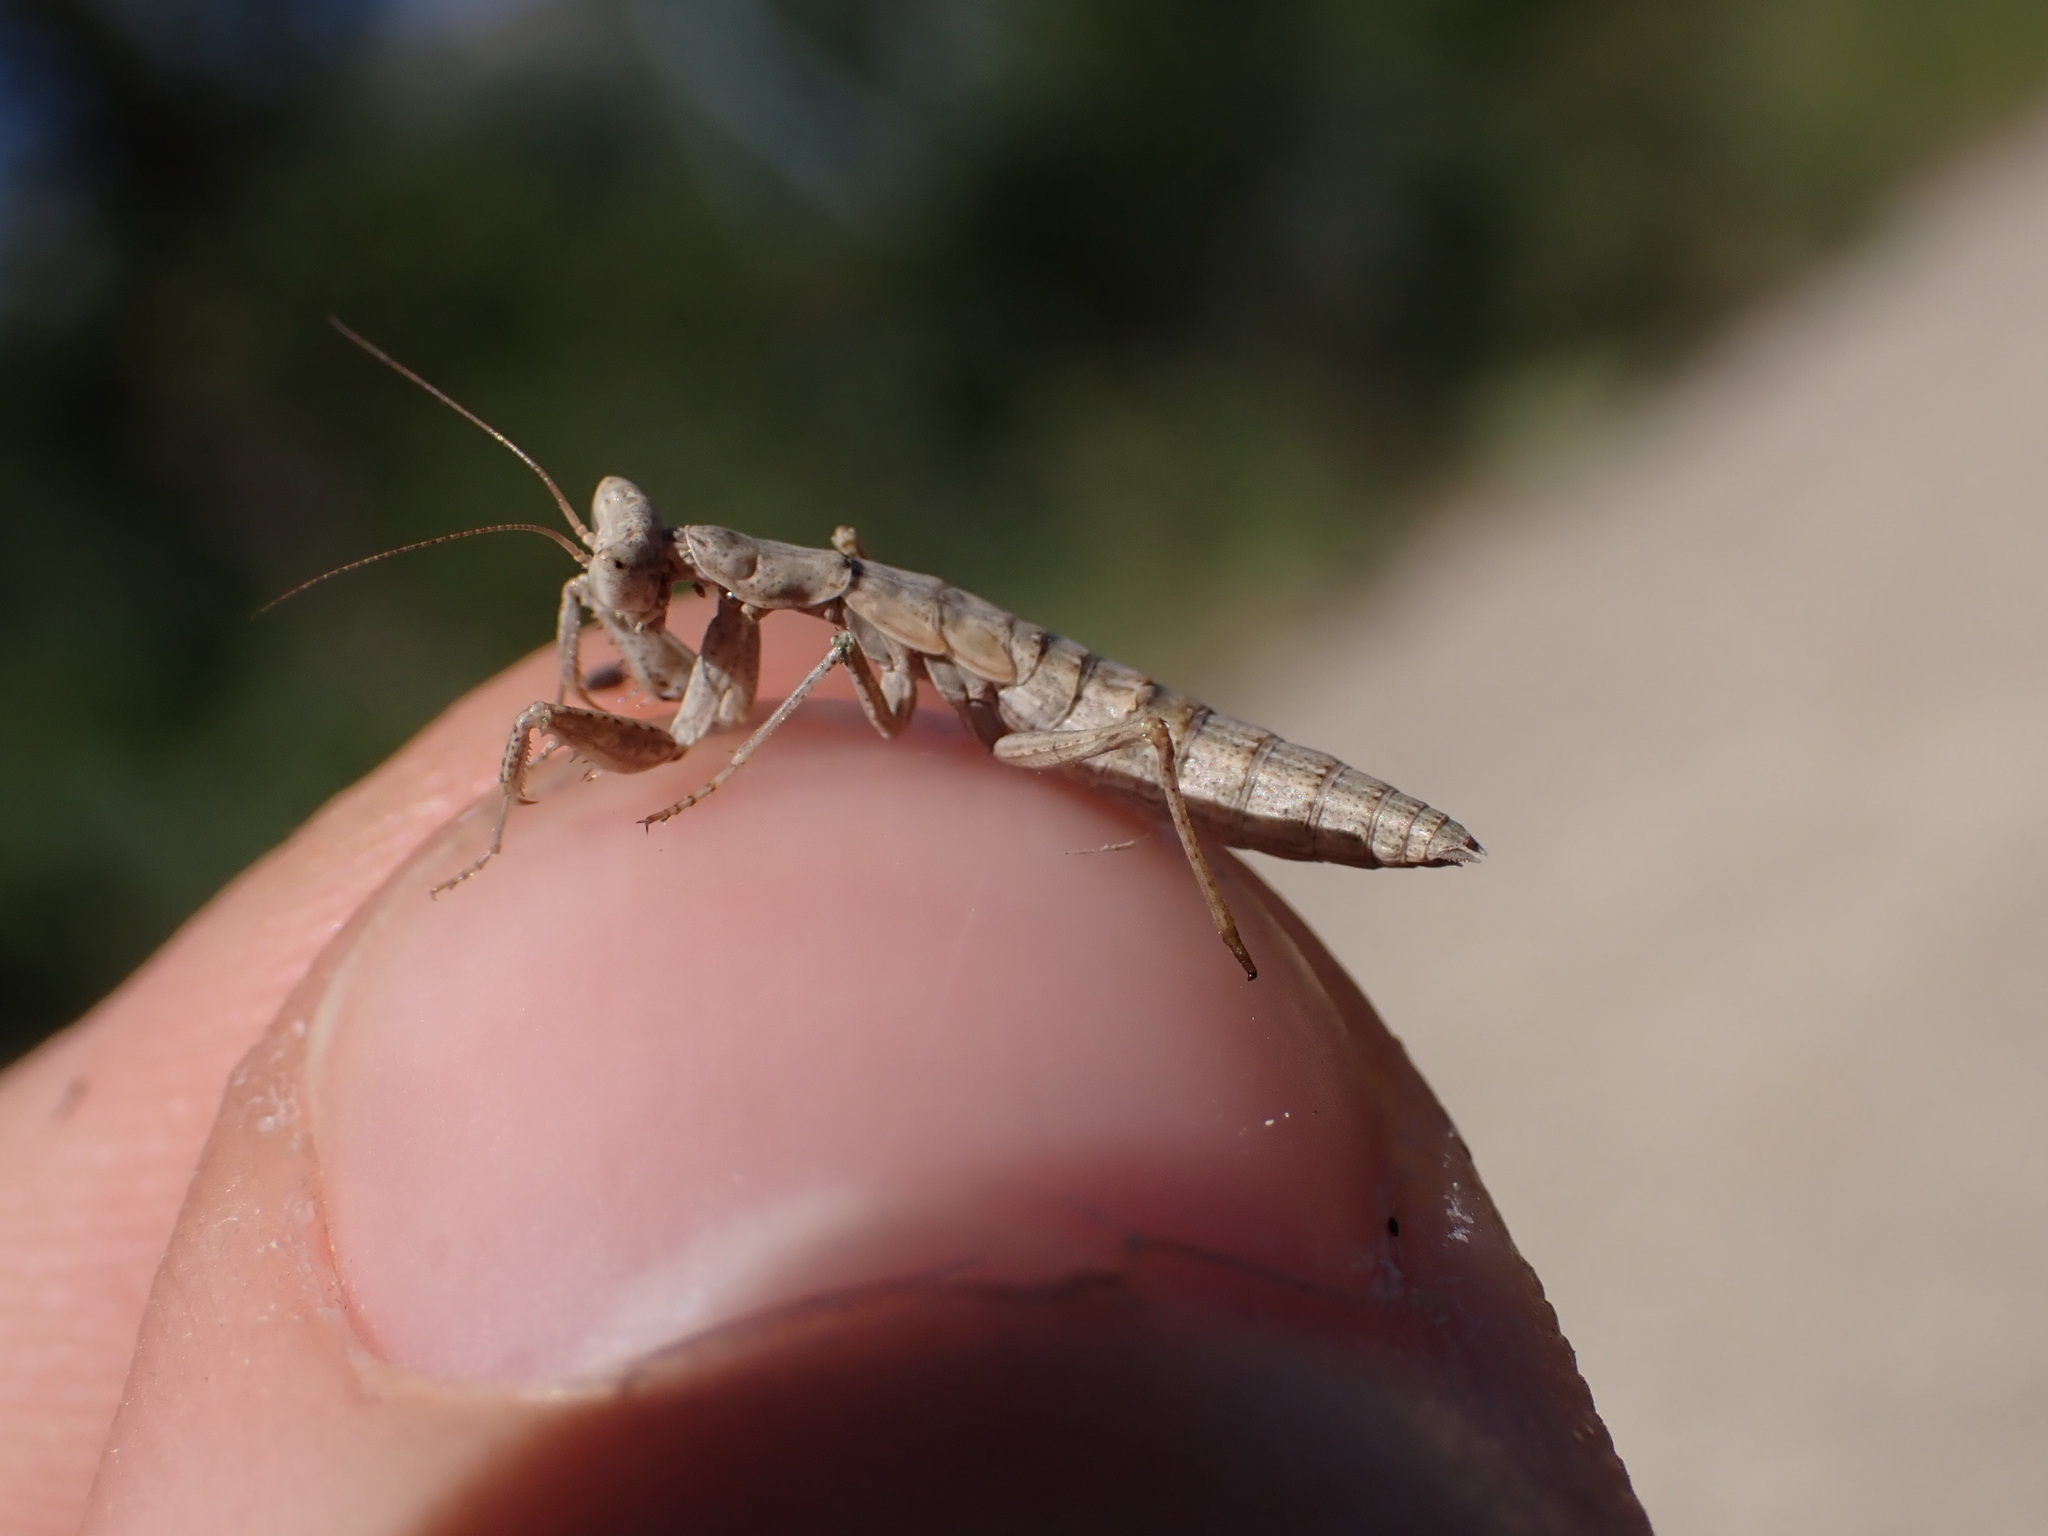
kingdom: Animalia
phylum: Arthropoda
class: Insecta
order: Mantodea
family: Amelidae
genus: Ameles
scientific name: Ameles decolor
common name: Dwarf mantis
